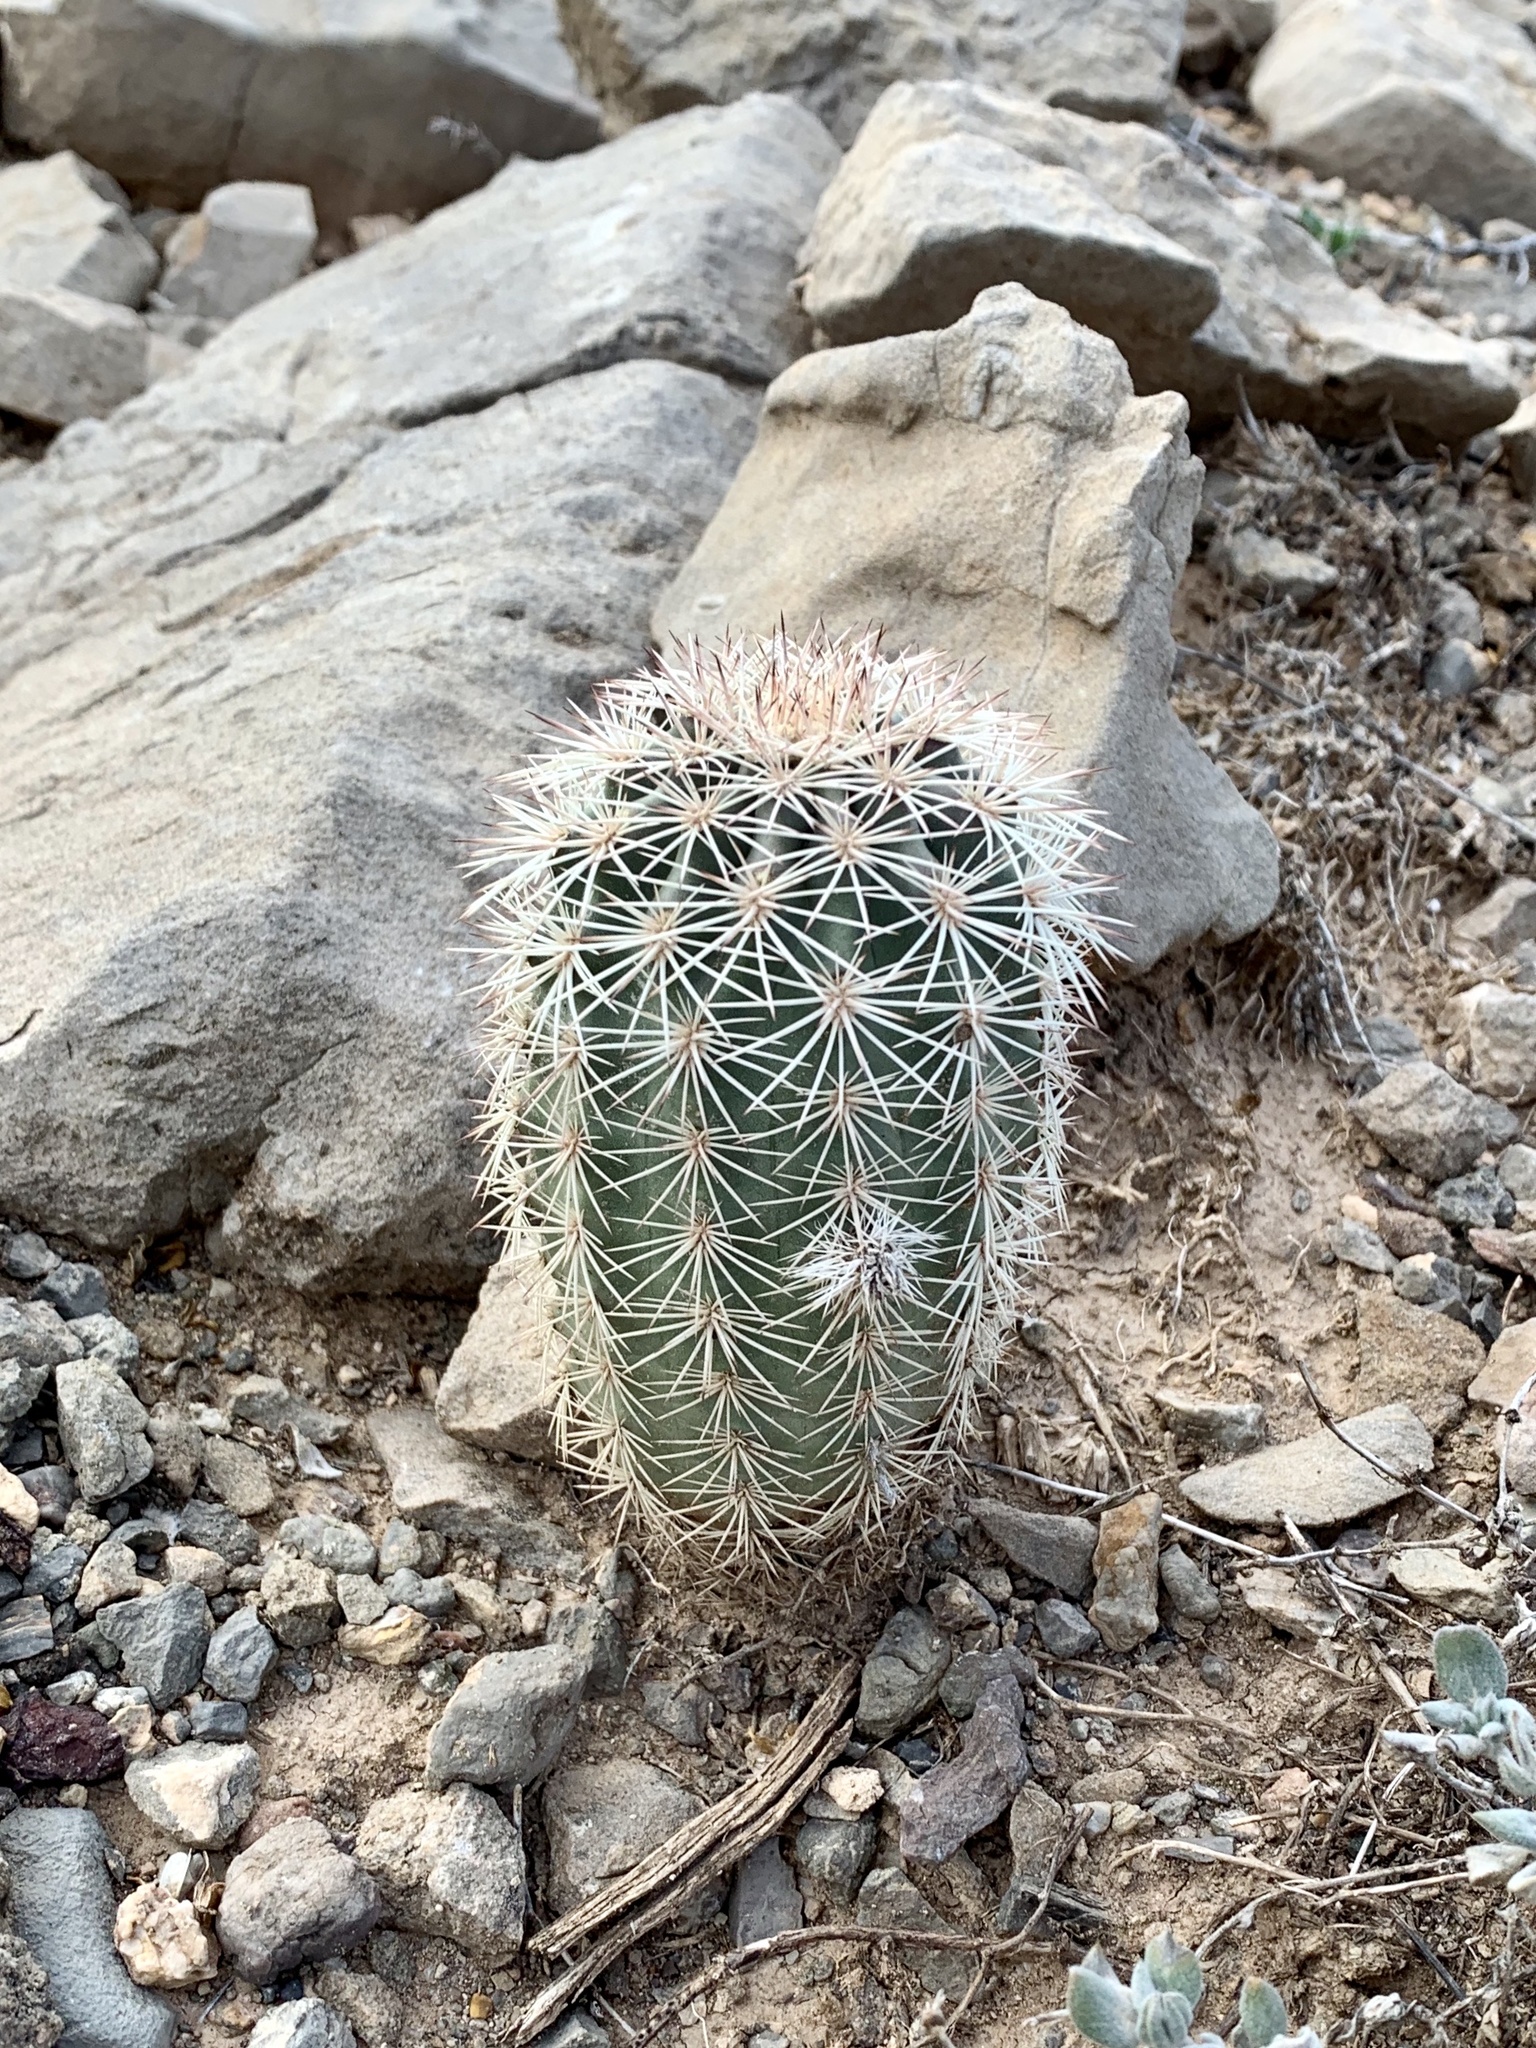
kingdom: Plantae
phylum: Tracheophyta
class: Magnoliopsida
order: Caryophyllales
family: Cactaceae
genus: Echinocereus
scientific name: Echinocereus dasyacanthus
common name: Spiny hedgehog cactus
